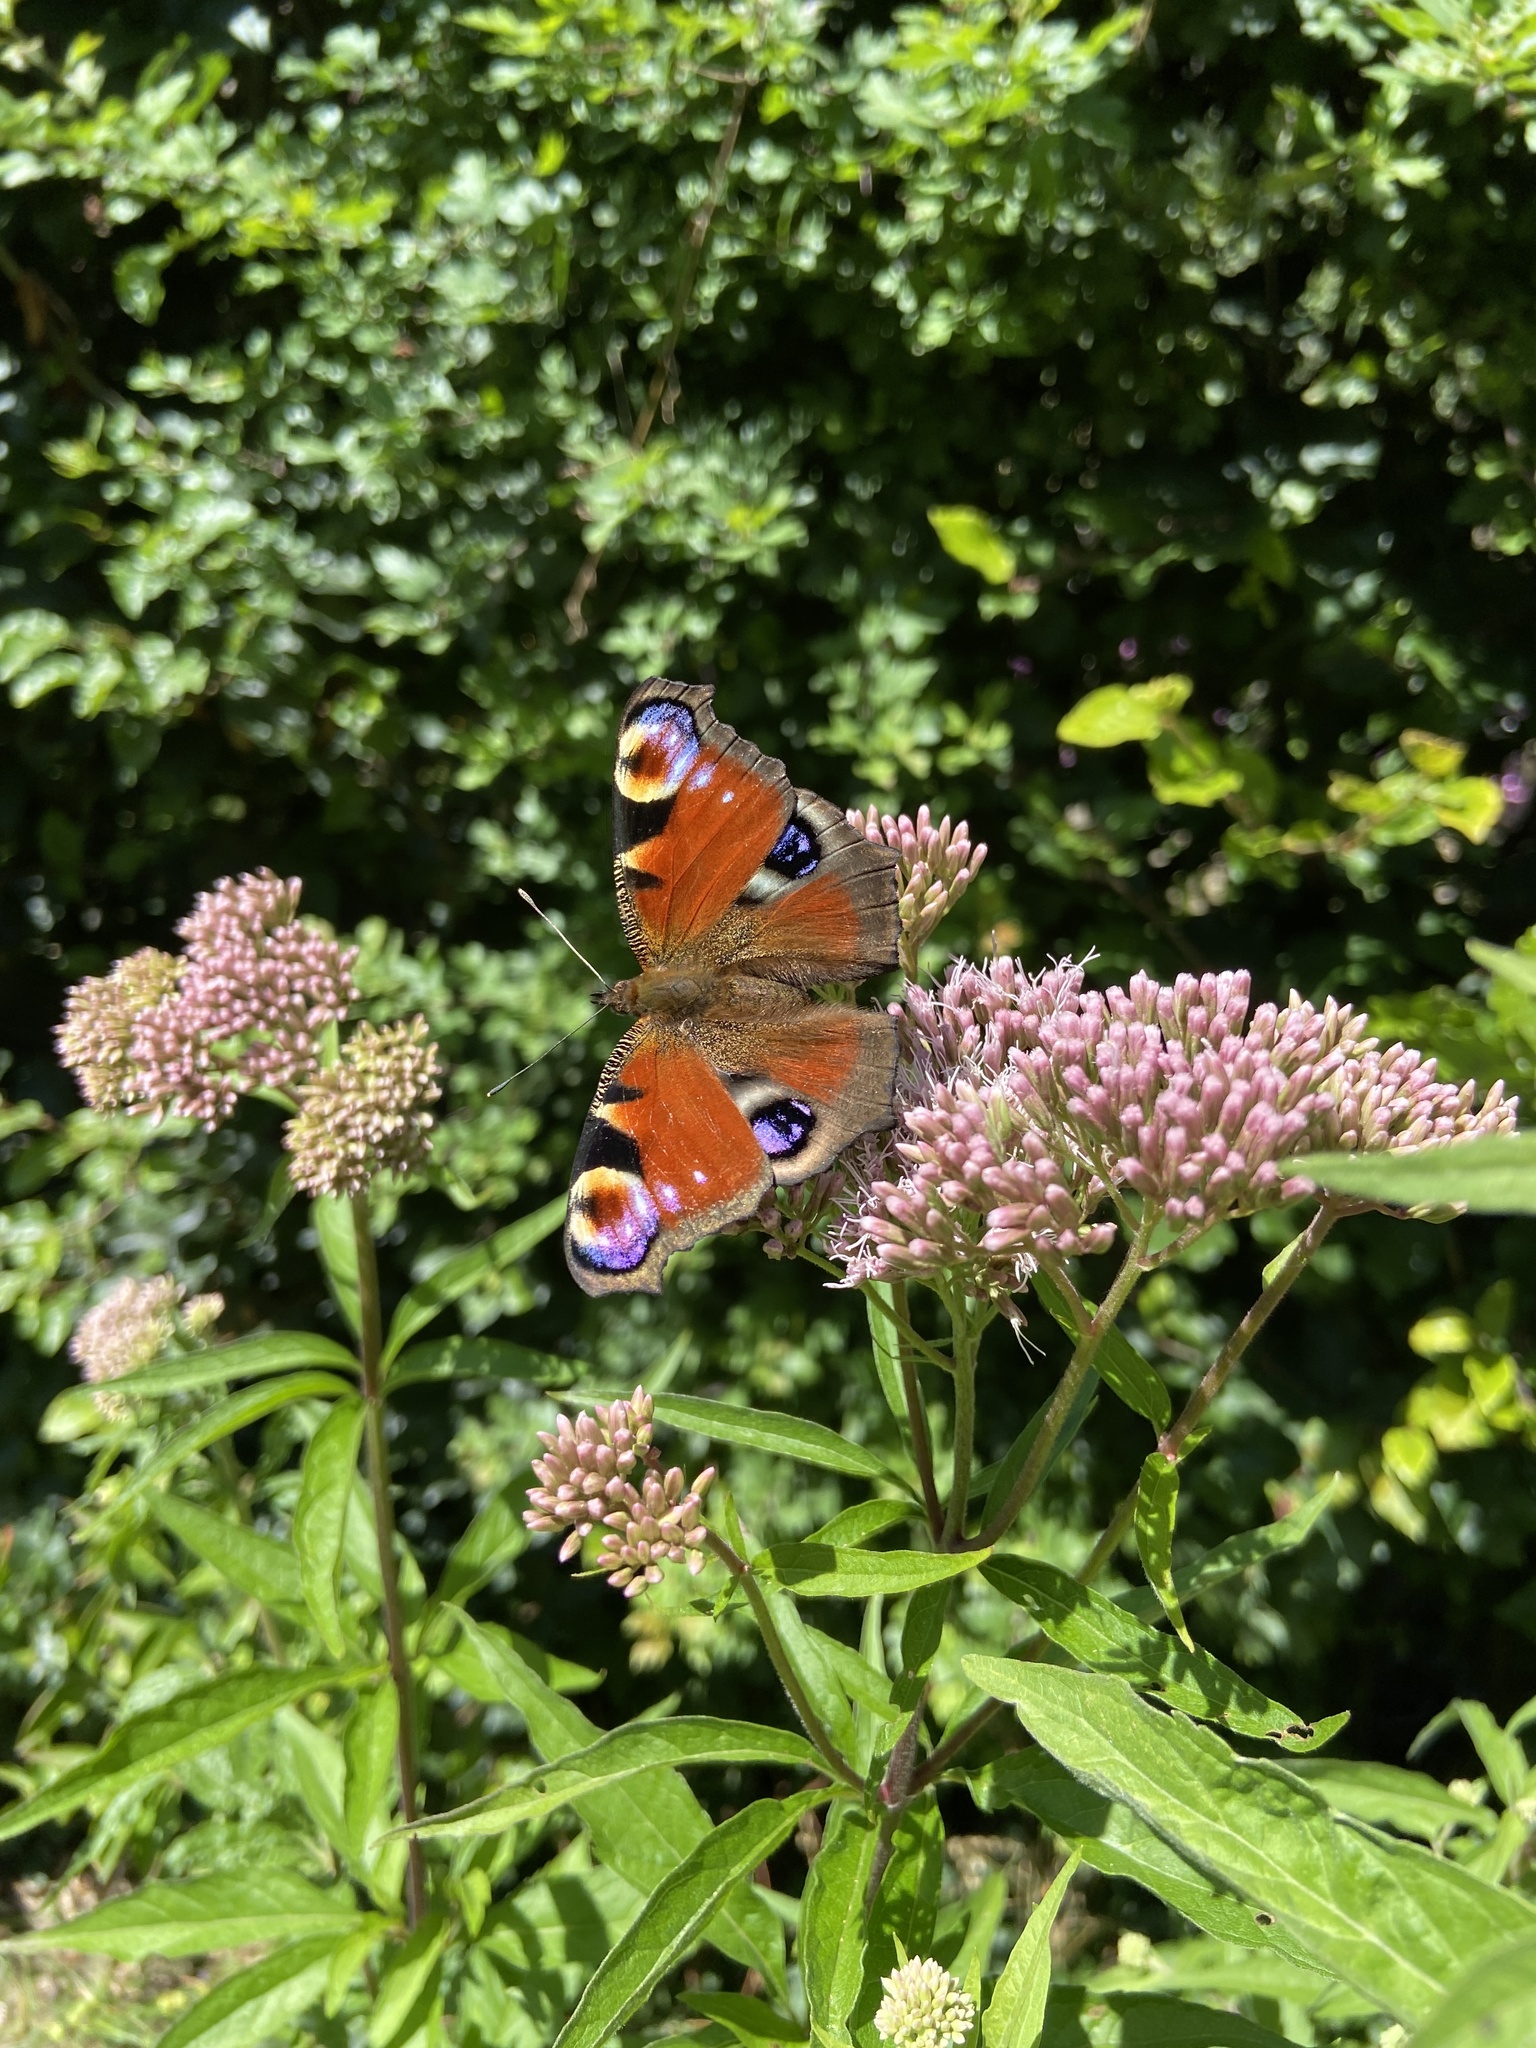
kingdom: Animalia
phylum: Arthropoda
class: Insecta
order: Lepidoptera
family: Nymphalidae
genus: Aglais
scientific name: Aglais io
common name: Peacock
